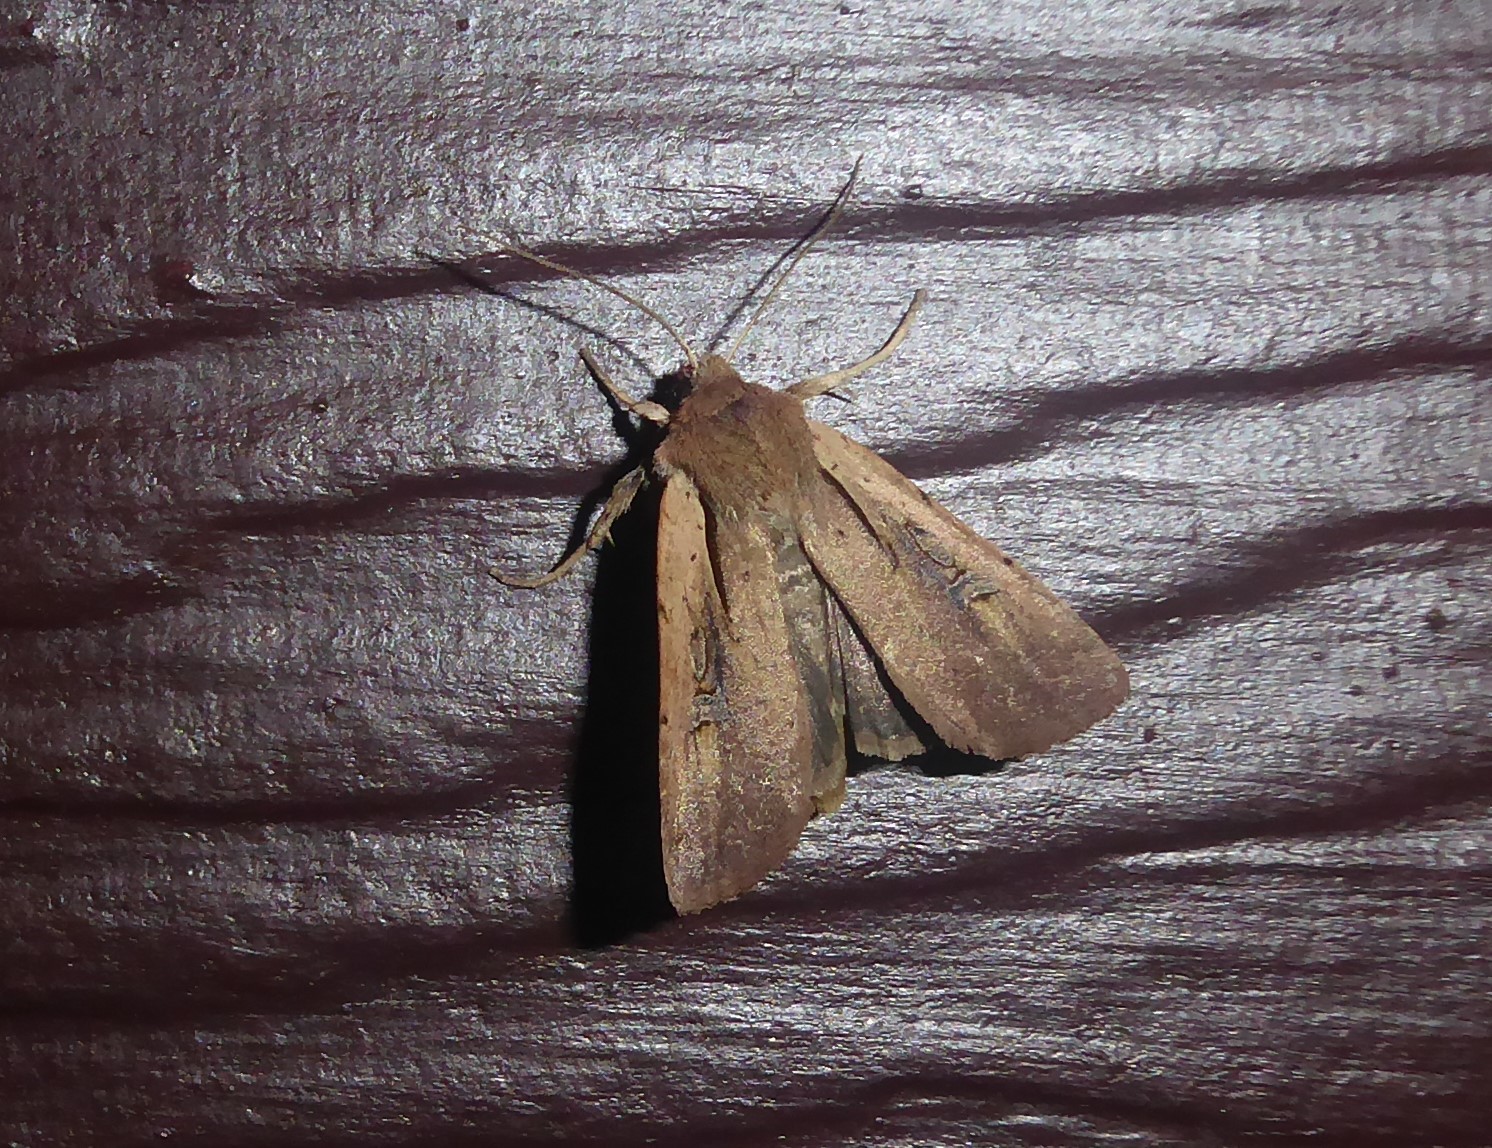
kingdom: Animalia
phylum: Arthropoda
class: Insecta
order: Lepidoptera
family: Noctuidae
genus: Ichneutica
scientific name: Ichneutica atristriga
